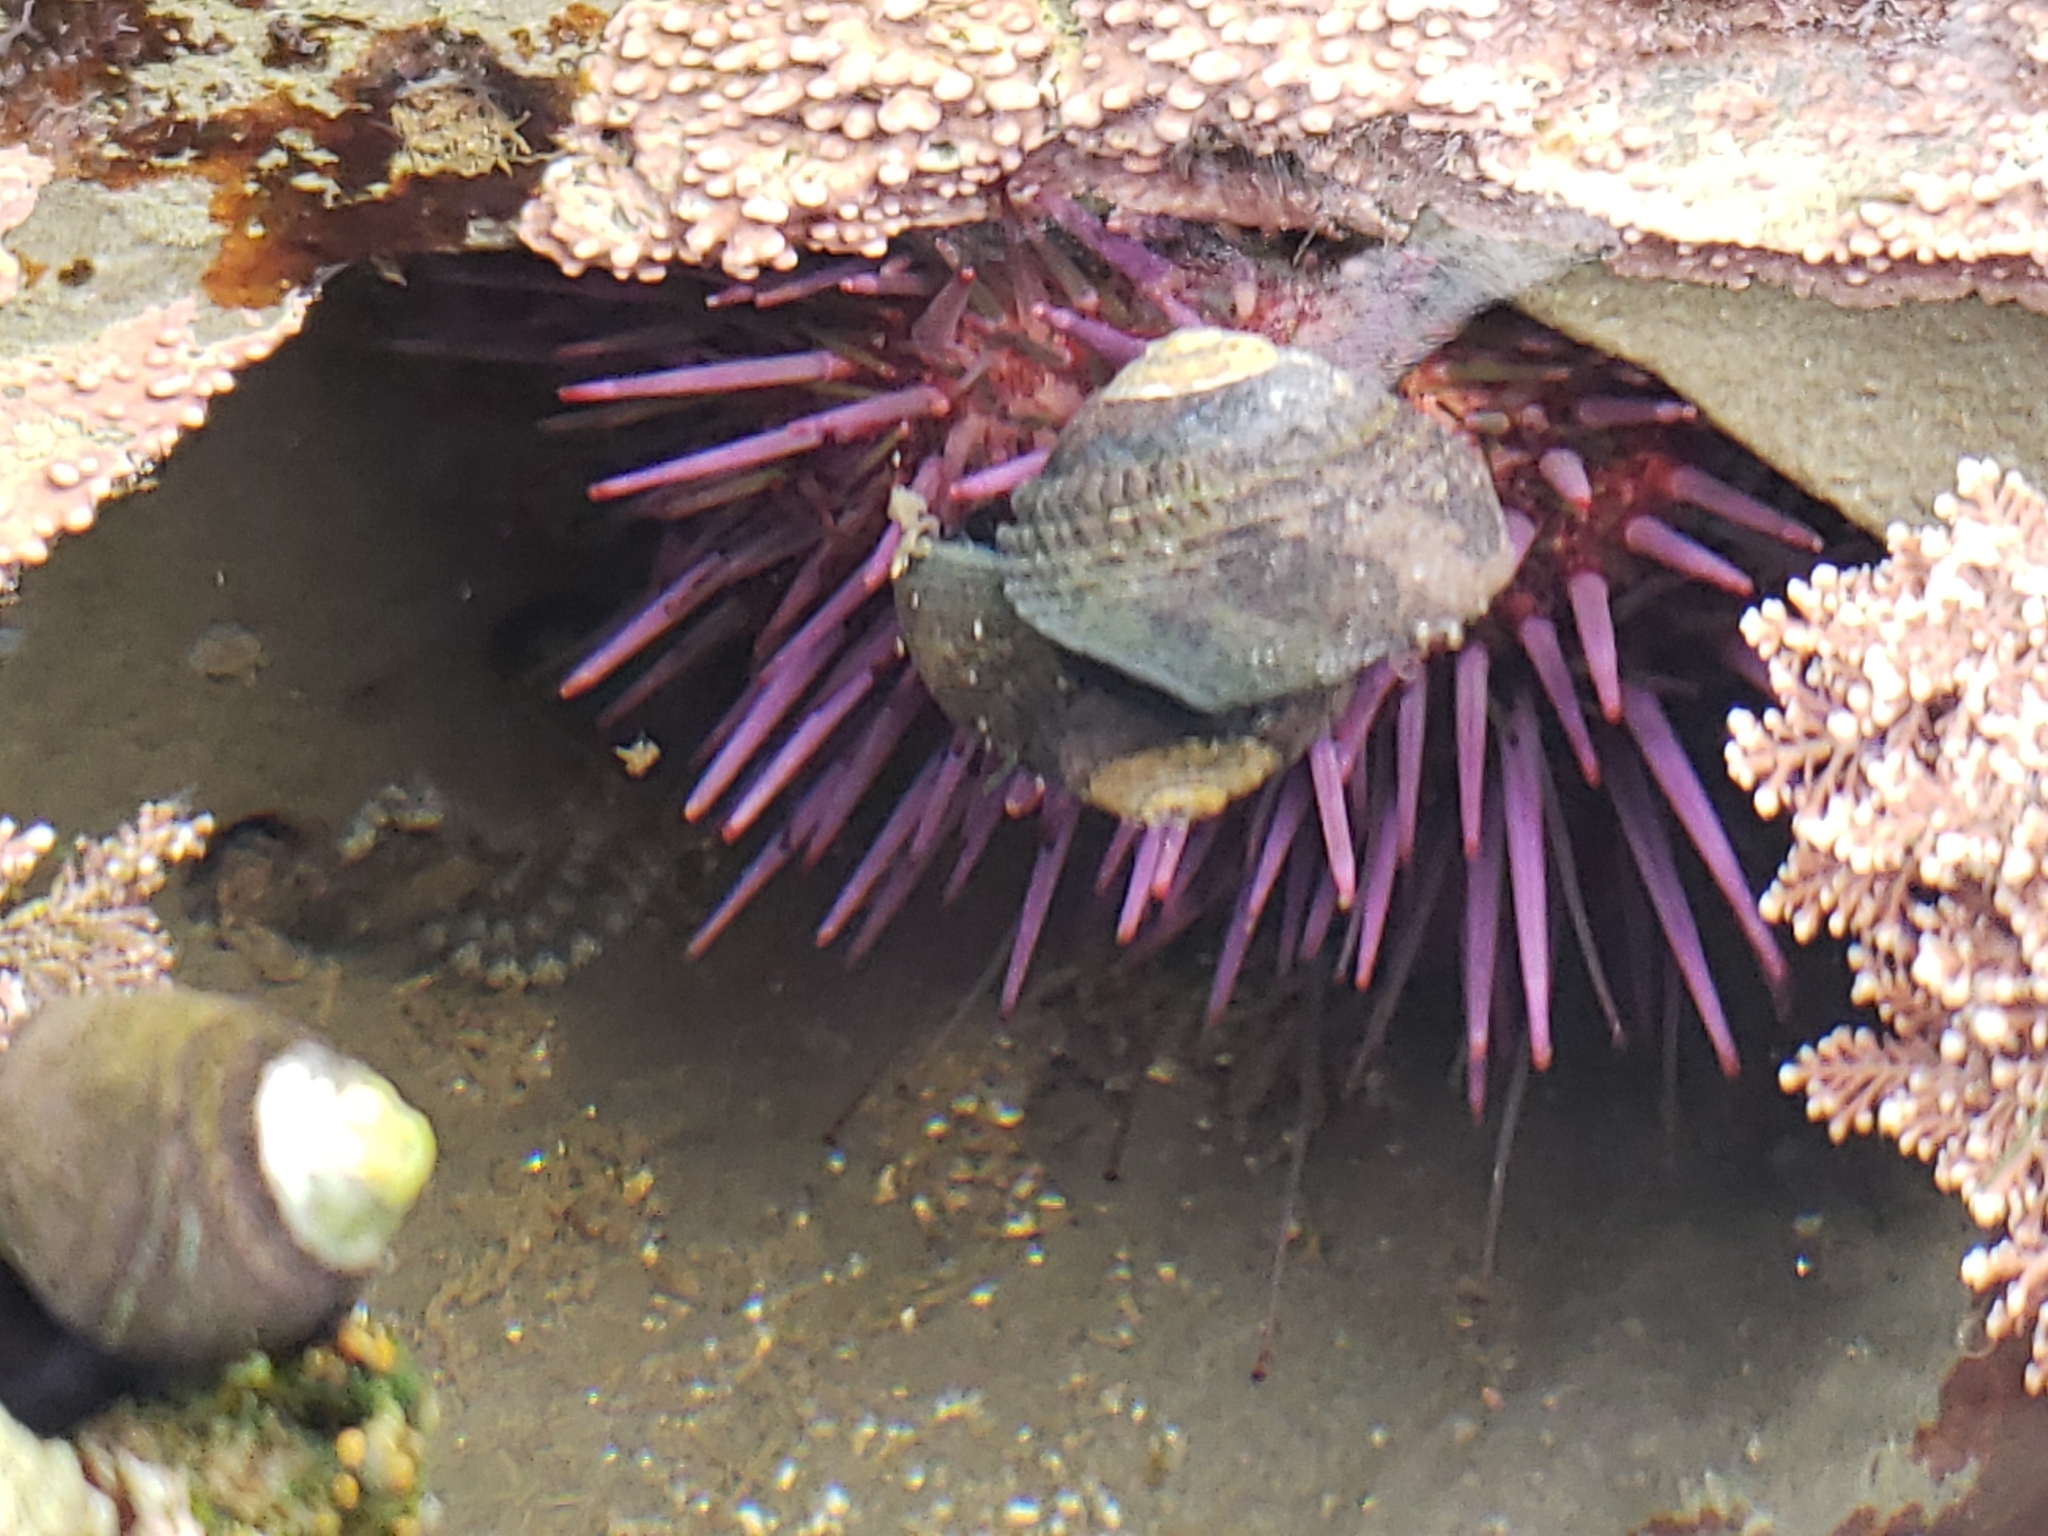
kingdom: Animalia
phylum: Echinodermata
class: Echinoidea
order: Camarodonta
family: Strongylocentrotidae
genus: Strongylocentrotus
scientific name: Strongylocentrotus purpuratus
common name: Purple sea urchin
